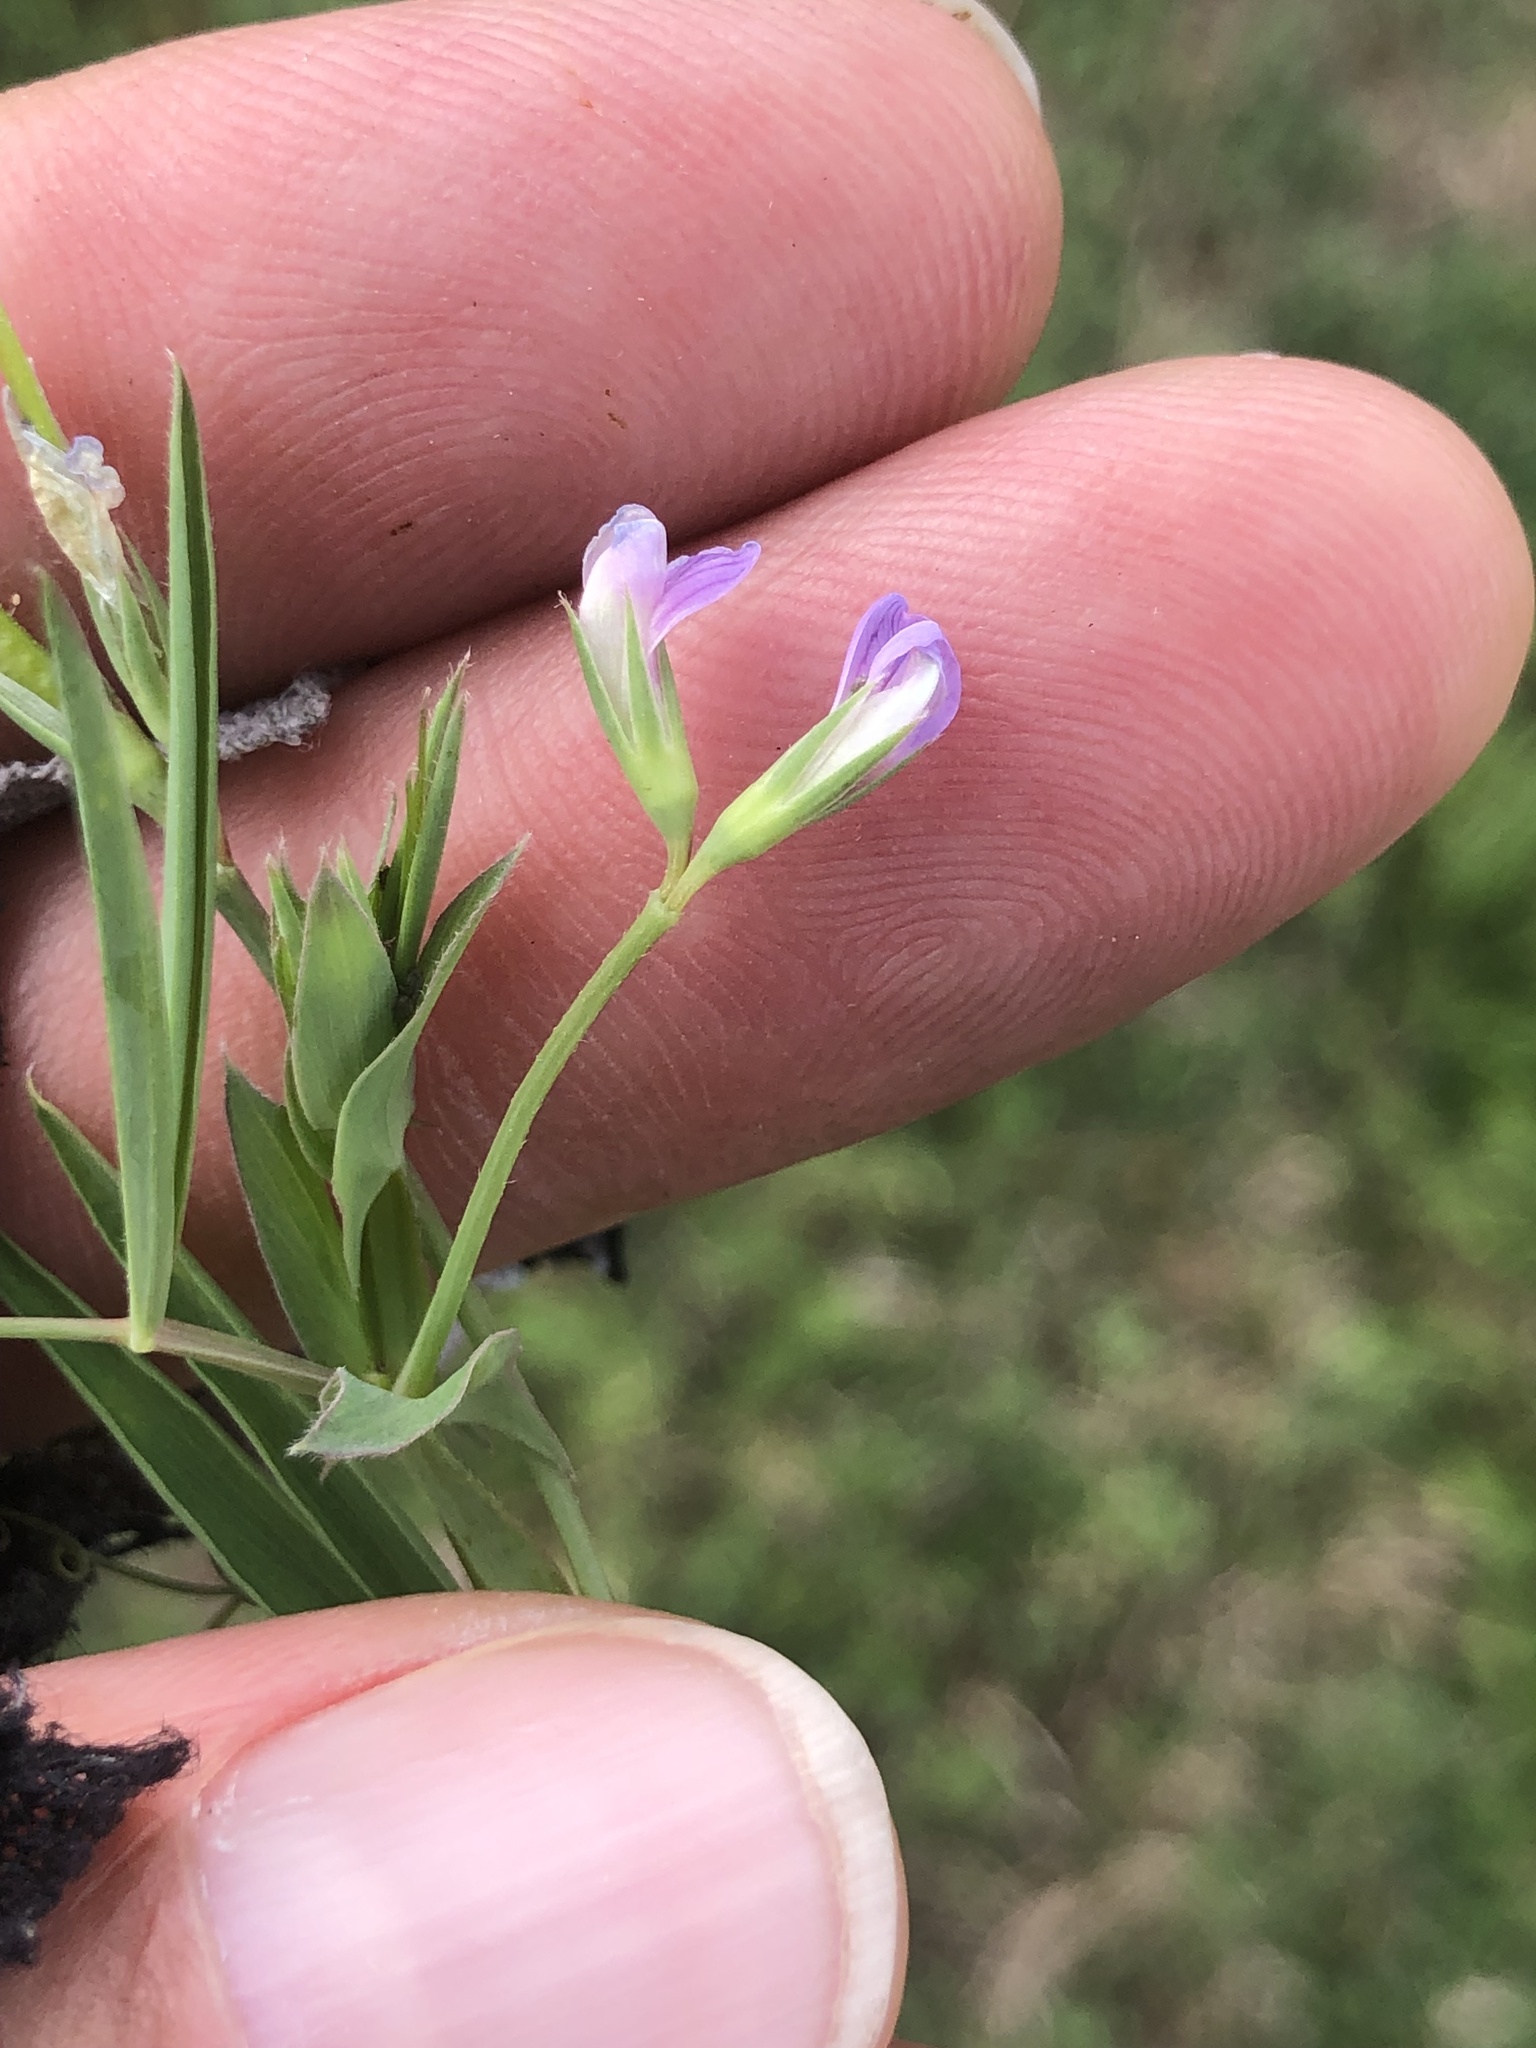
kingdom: Plantae
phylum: Tracheophyta
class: Magnoliopsida
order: Fabales
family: Fabaceae
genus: Lathyrus
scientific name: Lathyrus pusillus
